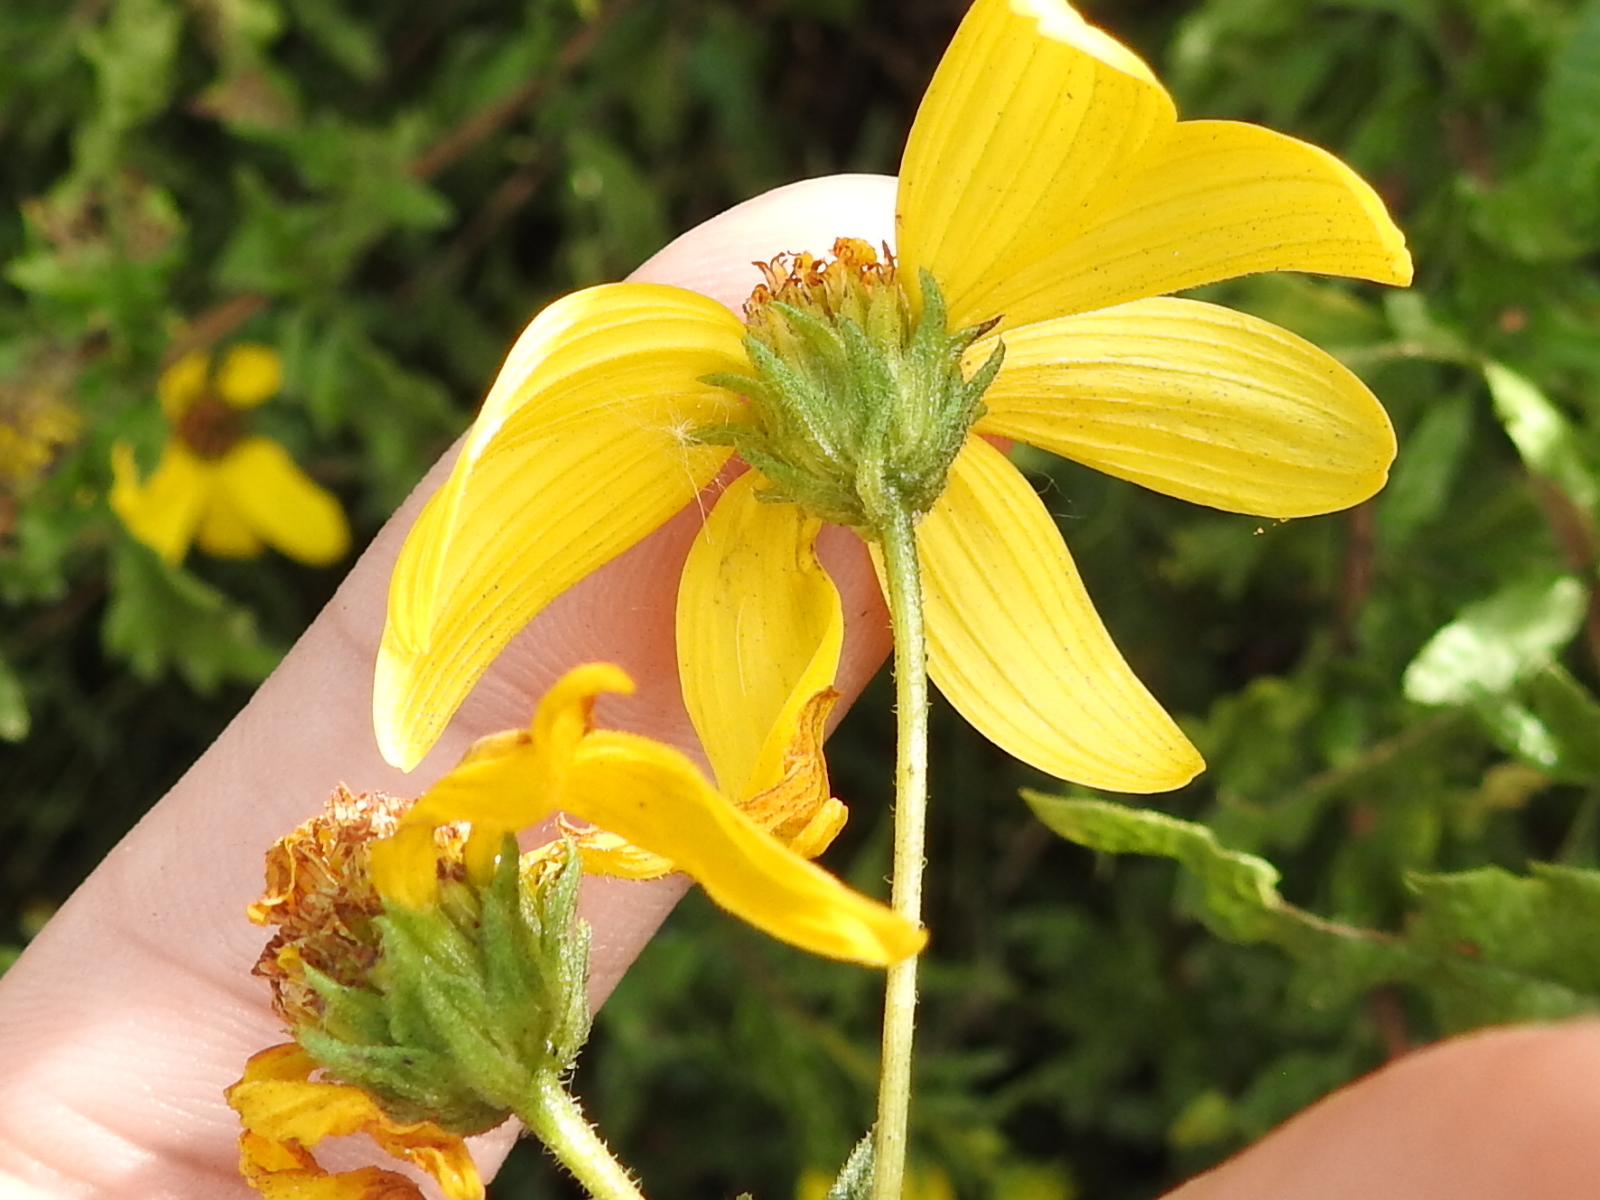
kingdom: Plantae
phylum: Tracheophyta
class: Magnoliopsida
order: Asterales
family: Asteraceae
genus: Bahiopsis
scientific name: Bahiopsis laciniata
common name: San diego county viguiera
